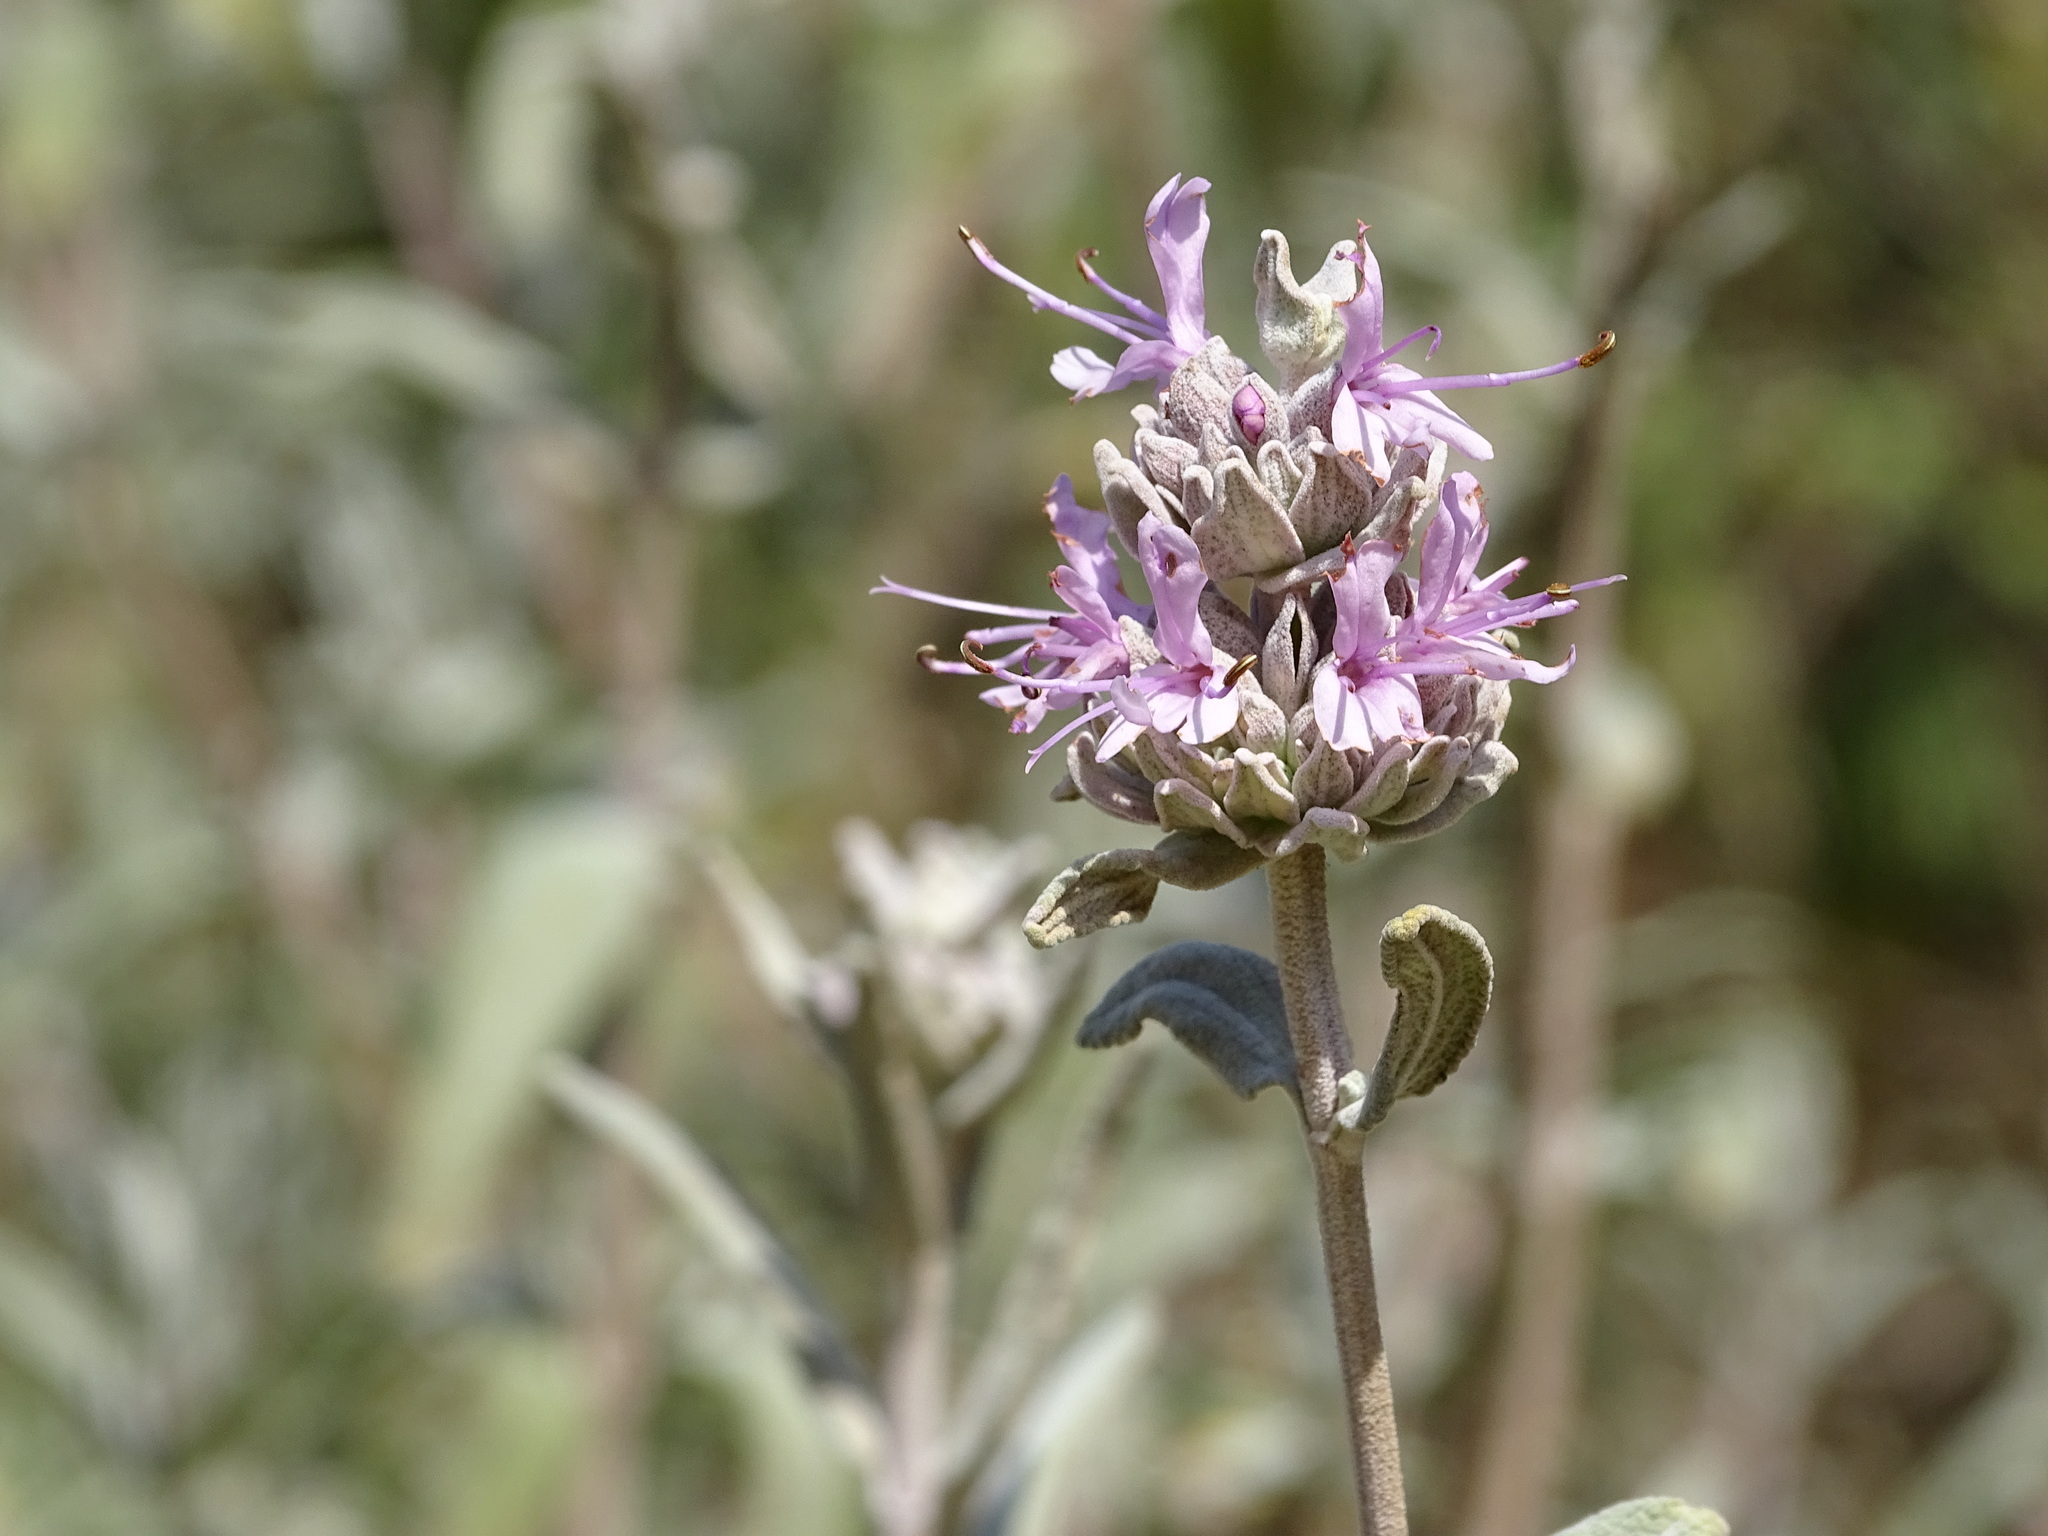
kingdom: Plantae
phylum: Tracheophyta
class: Magnoliopsida
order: Lamiales
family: Lamiaceae
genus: Salvia
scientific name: Salvia leucophylla
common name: Purple sage
